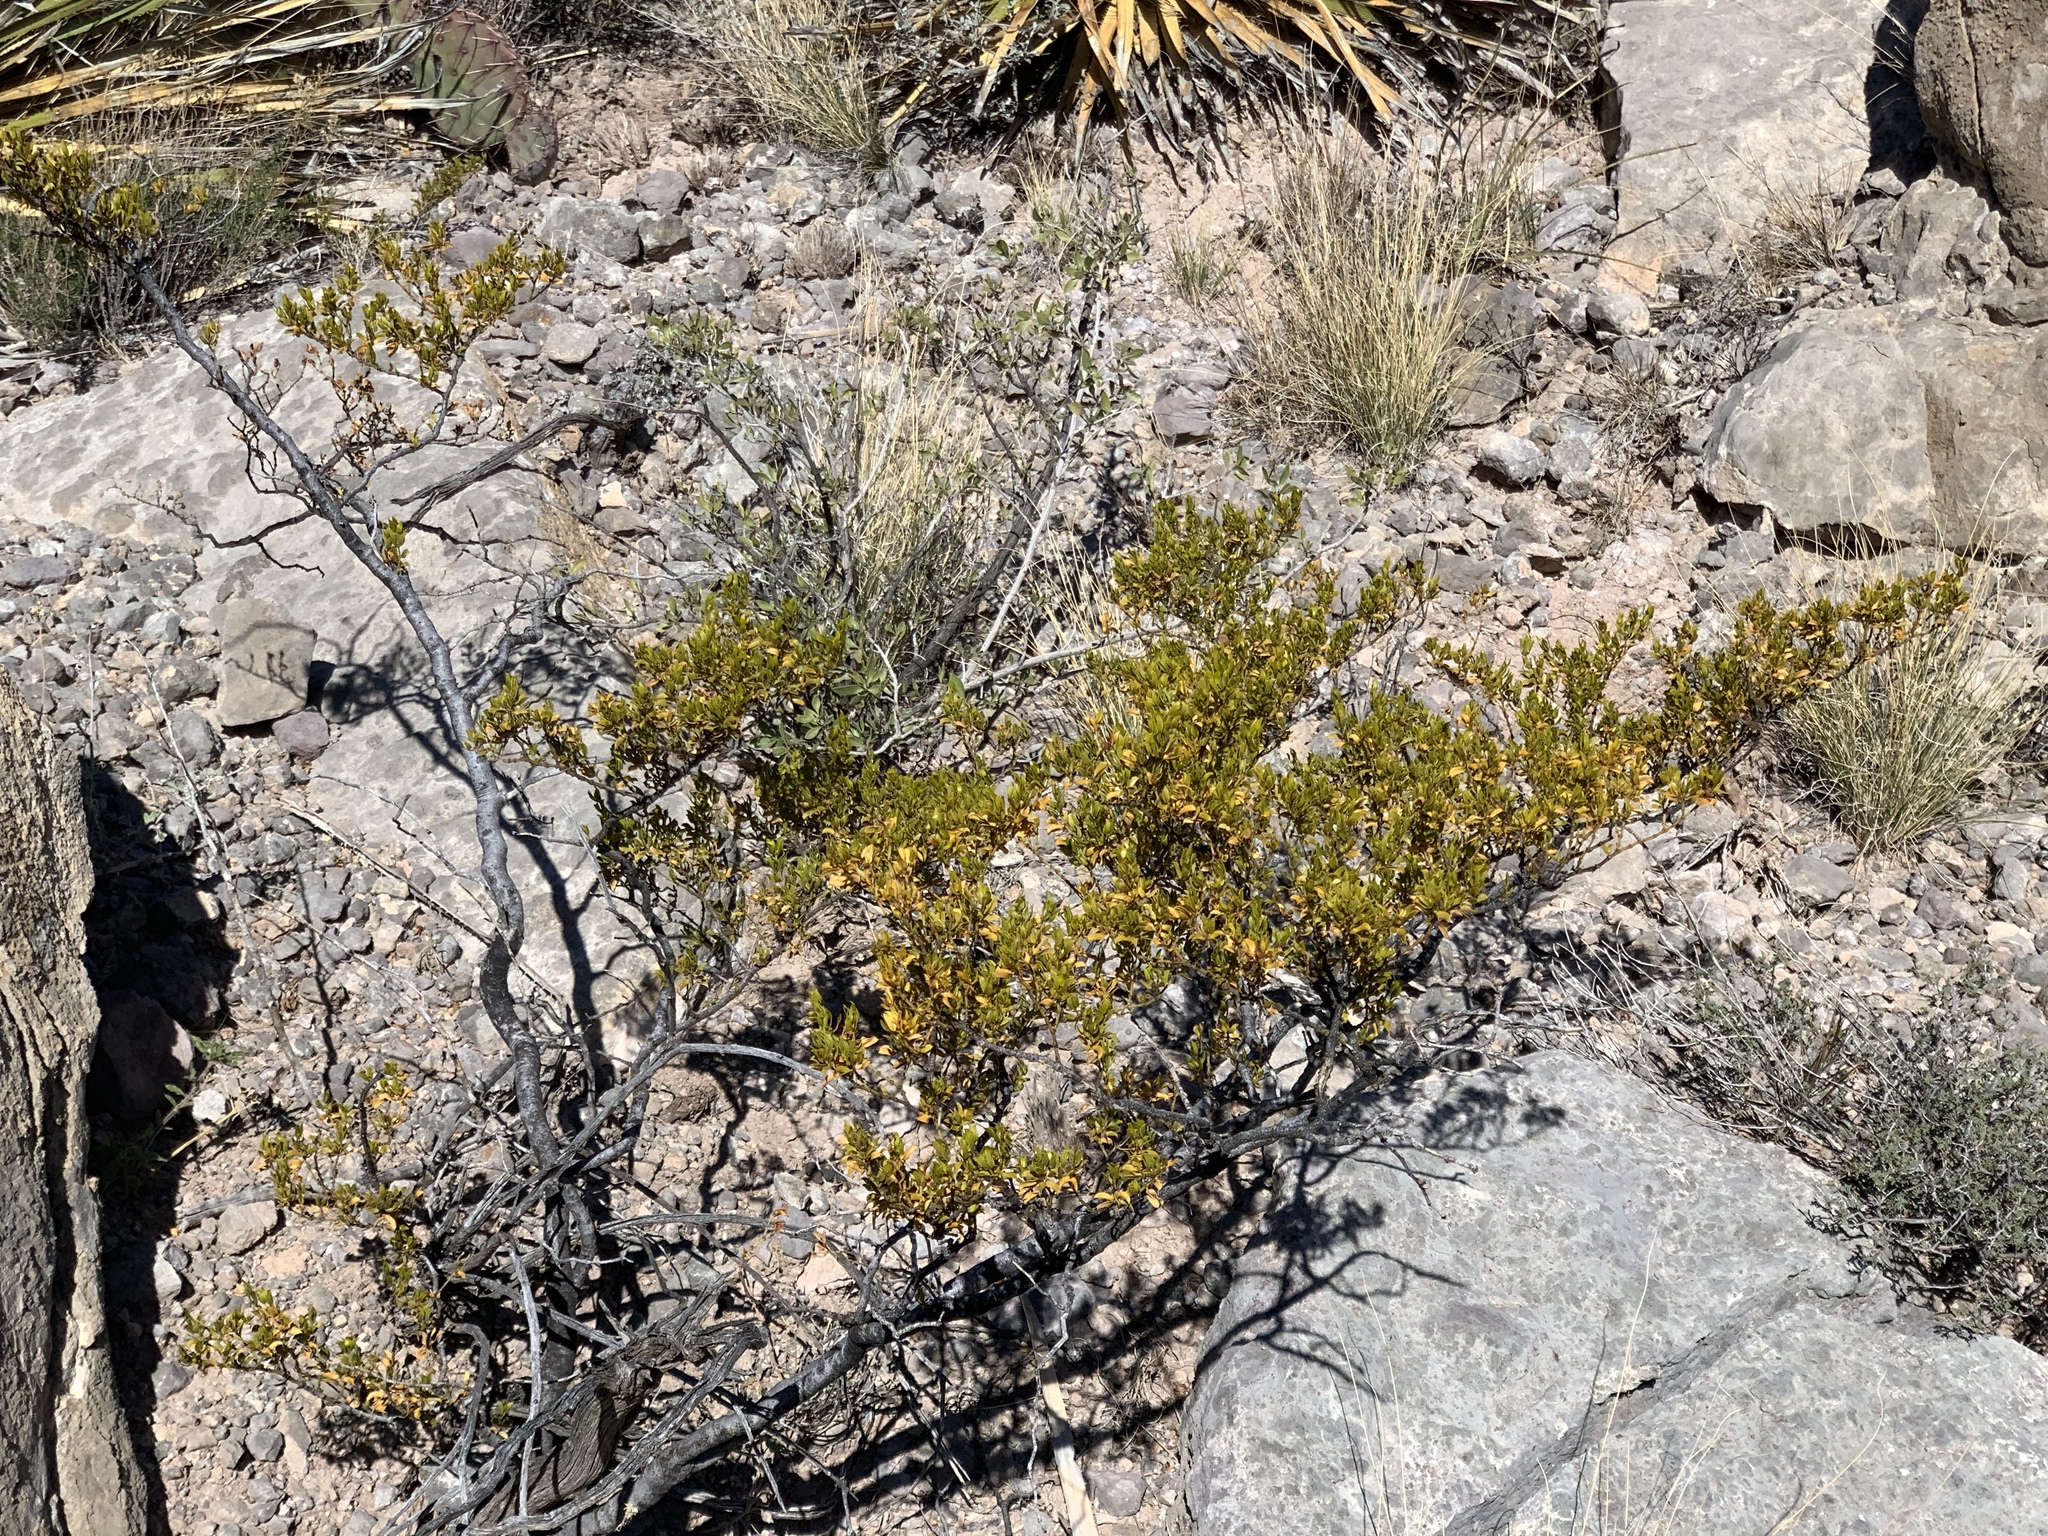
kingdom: Plantae
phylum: Tracheophyta
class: Magnoliopsida
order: Zygophyllales
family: Zygophyllaceae
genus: Larrea
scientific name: Larrea tridentata
